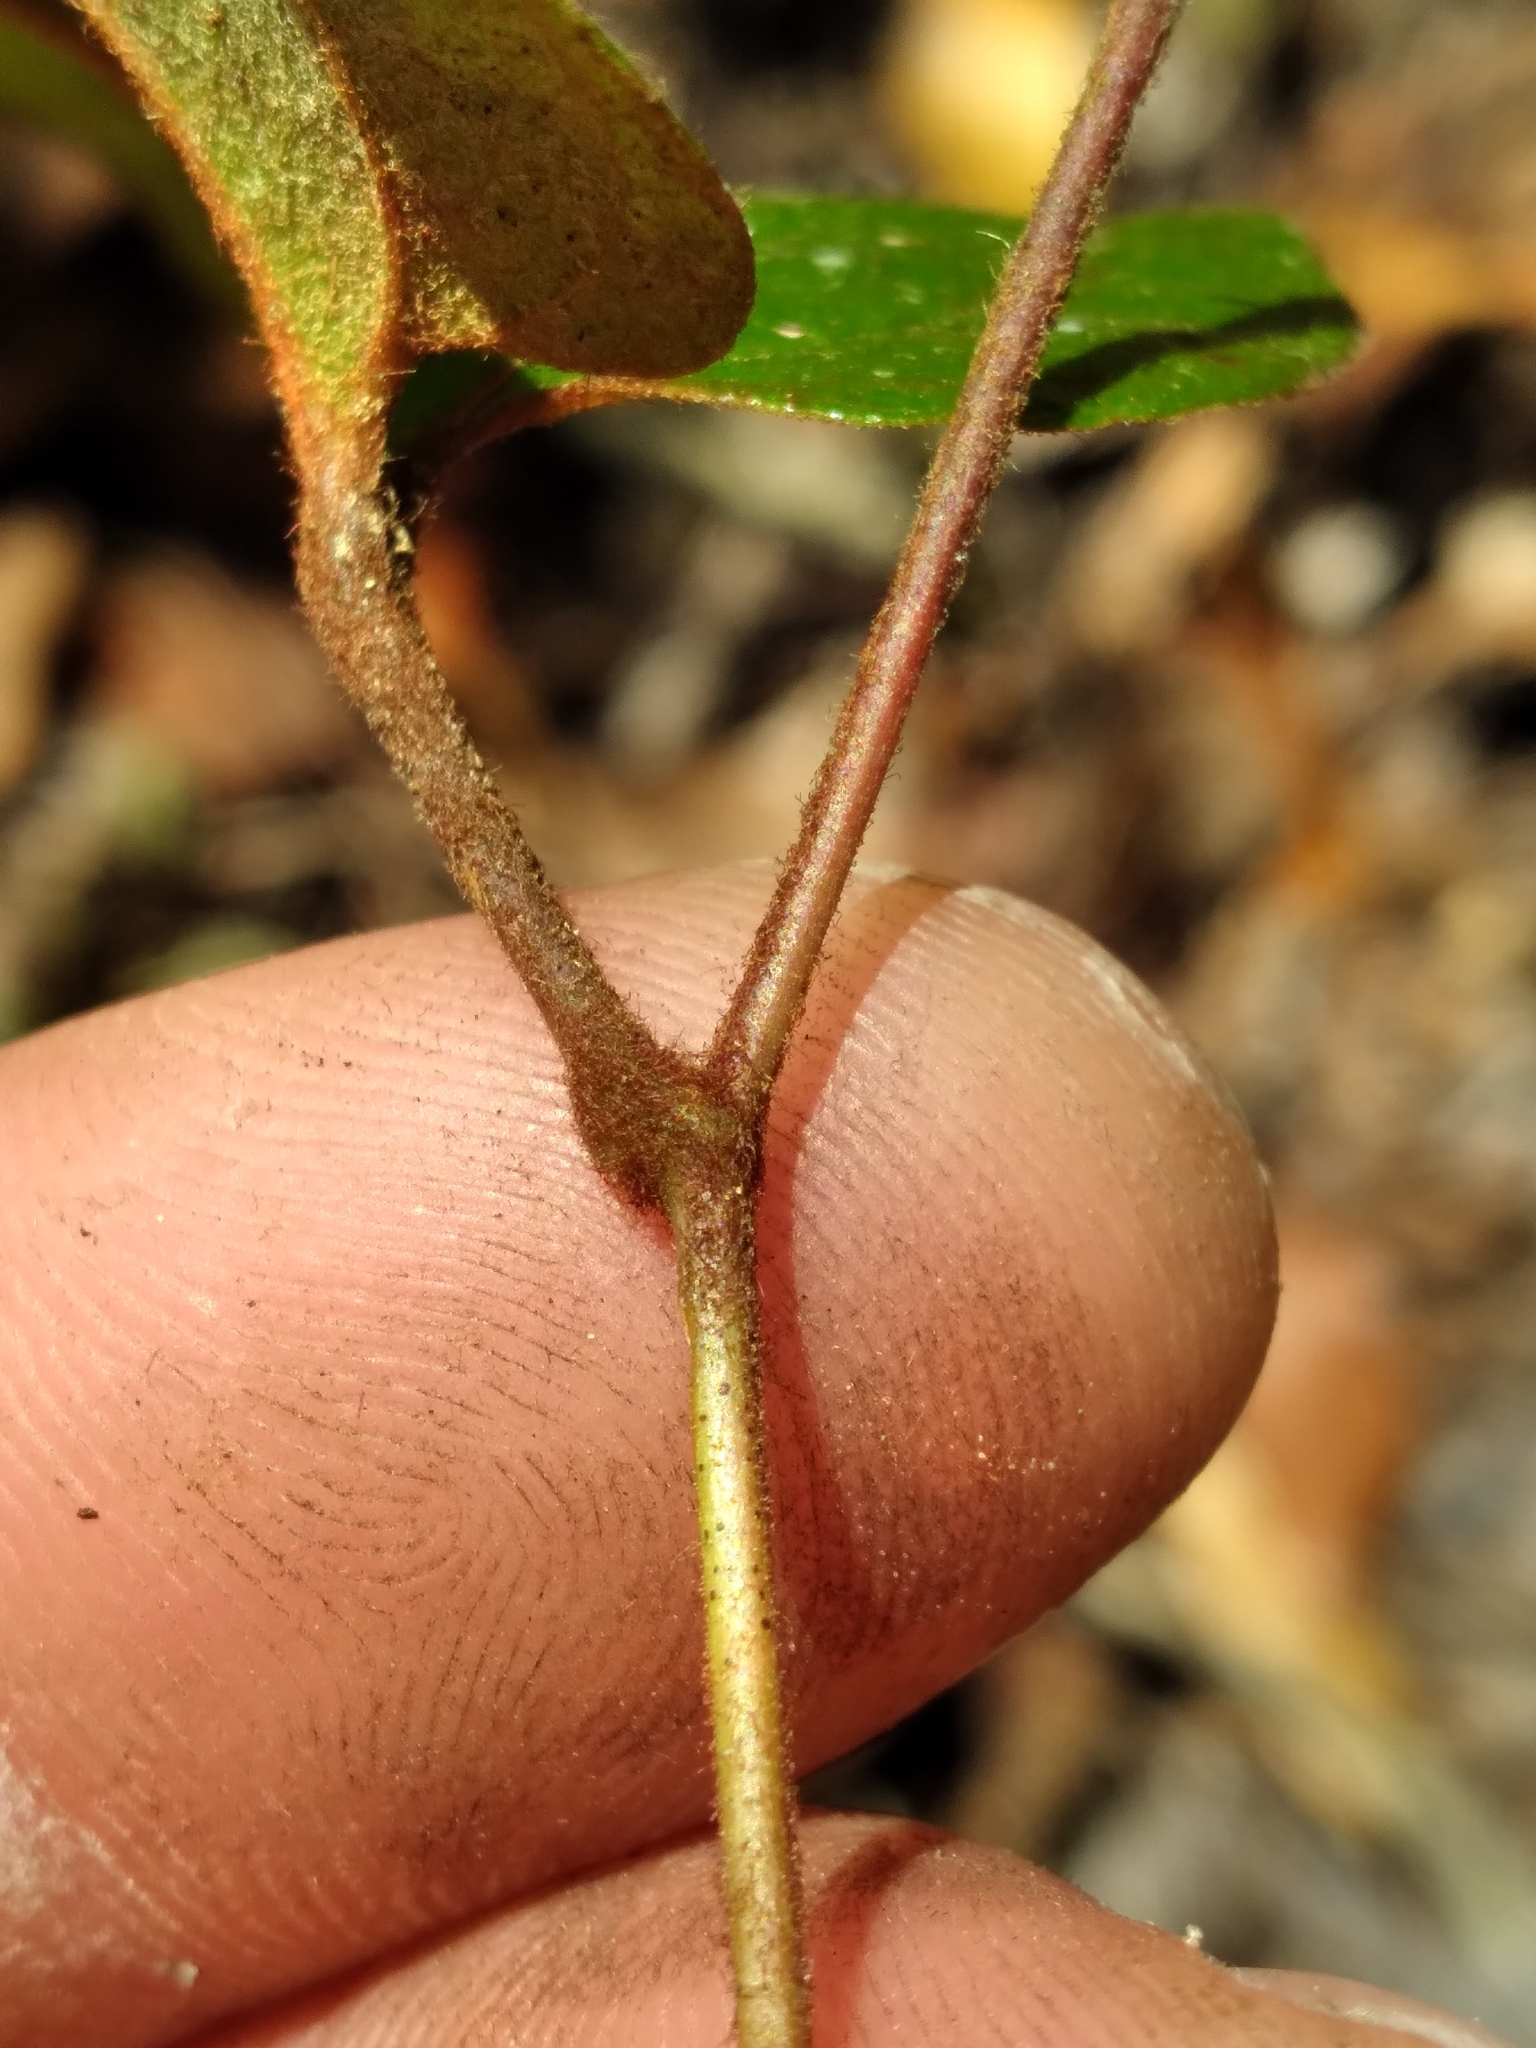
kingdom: Plantae
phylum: Tracheophyta
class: Liliopsida
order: Liliales
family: Smilacaceae
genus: Smilax
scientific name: Smilax pumila
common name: Sarsaparilla-vine
